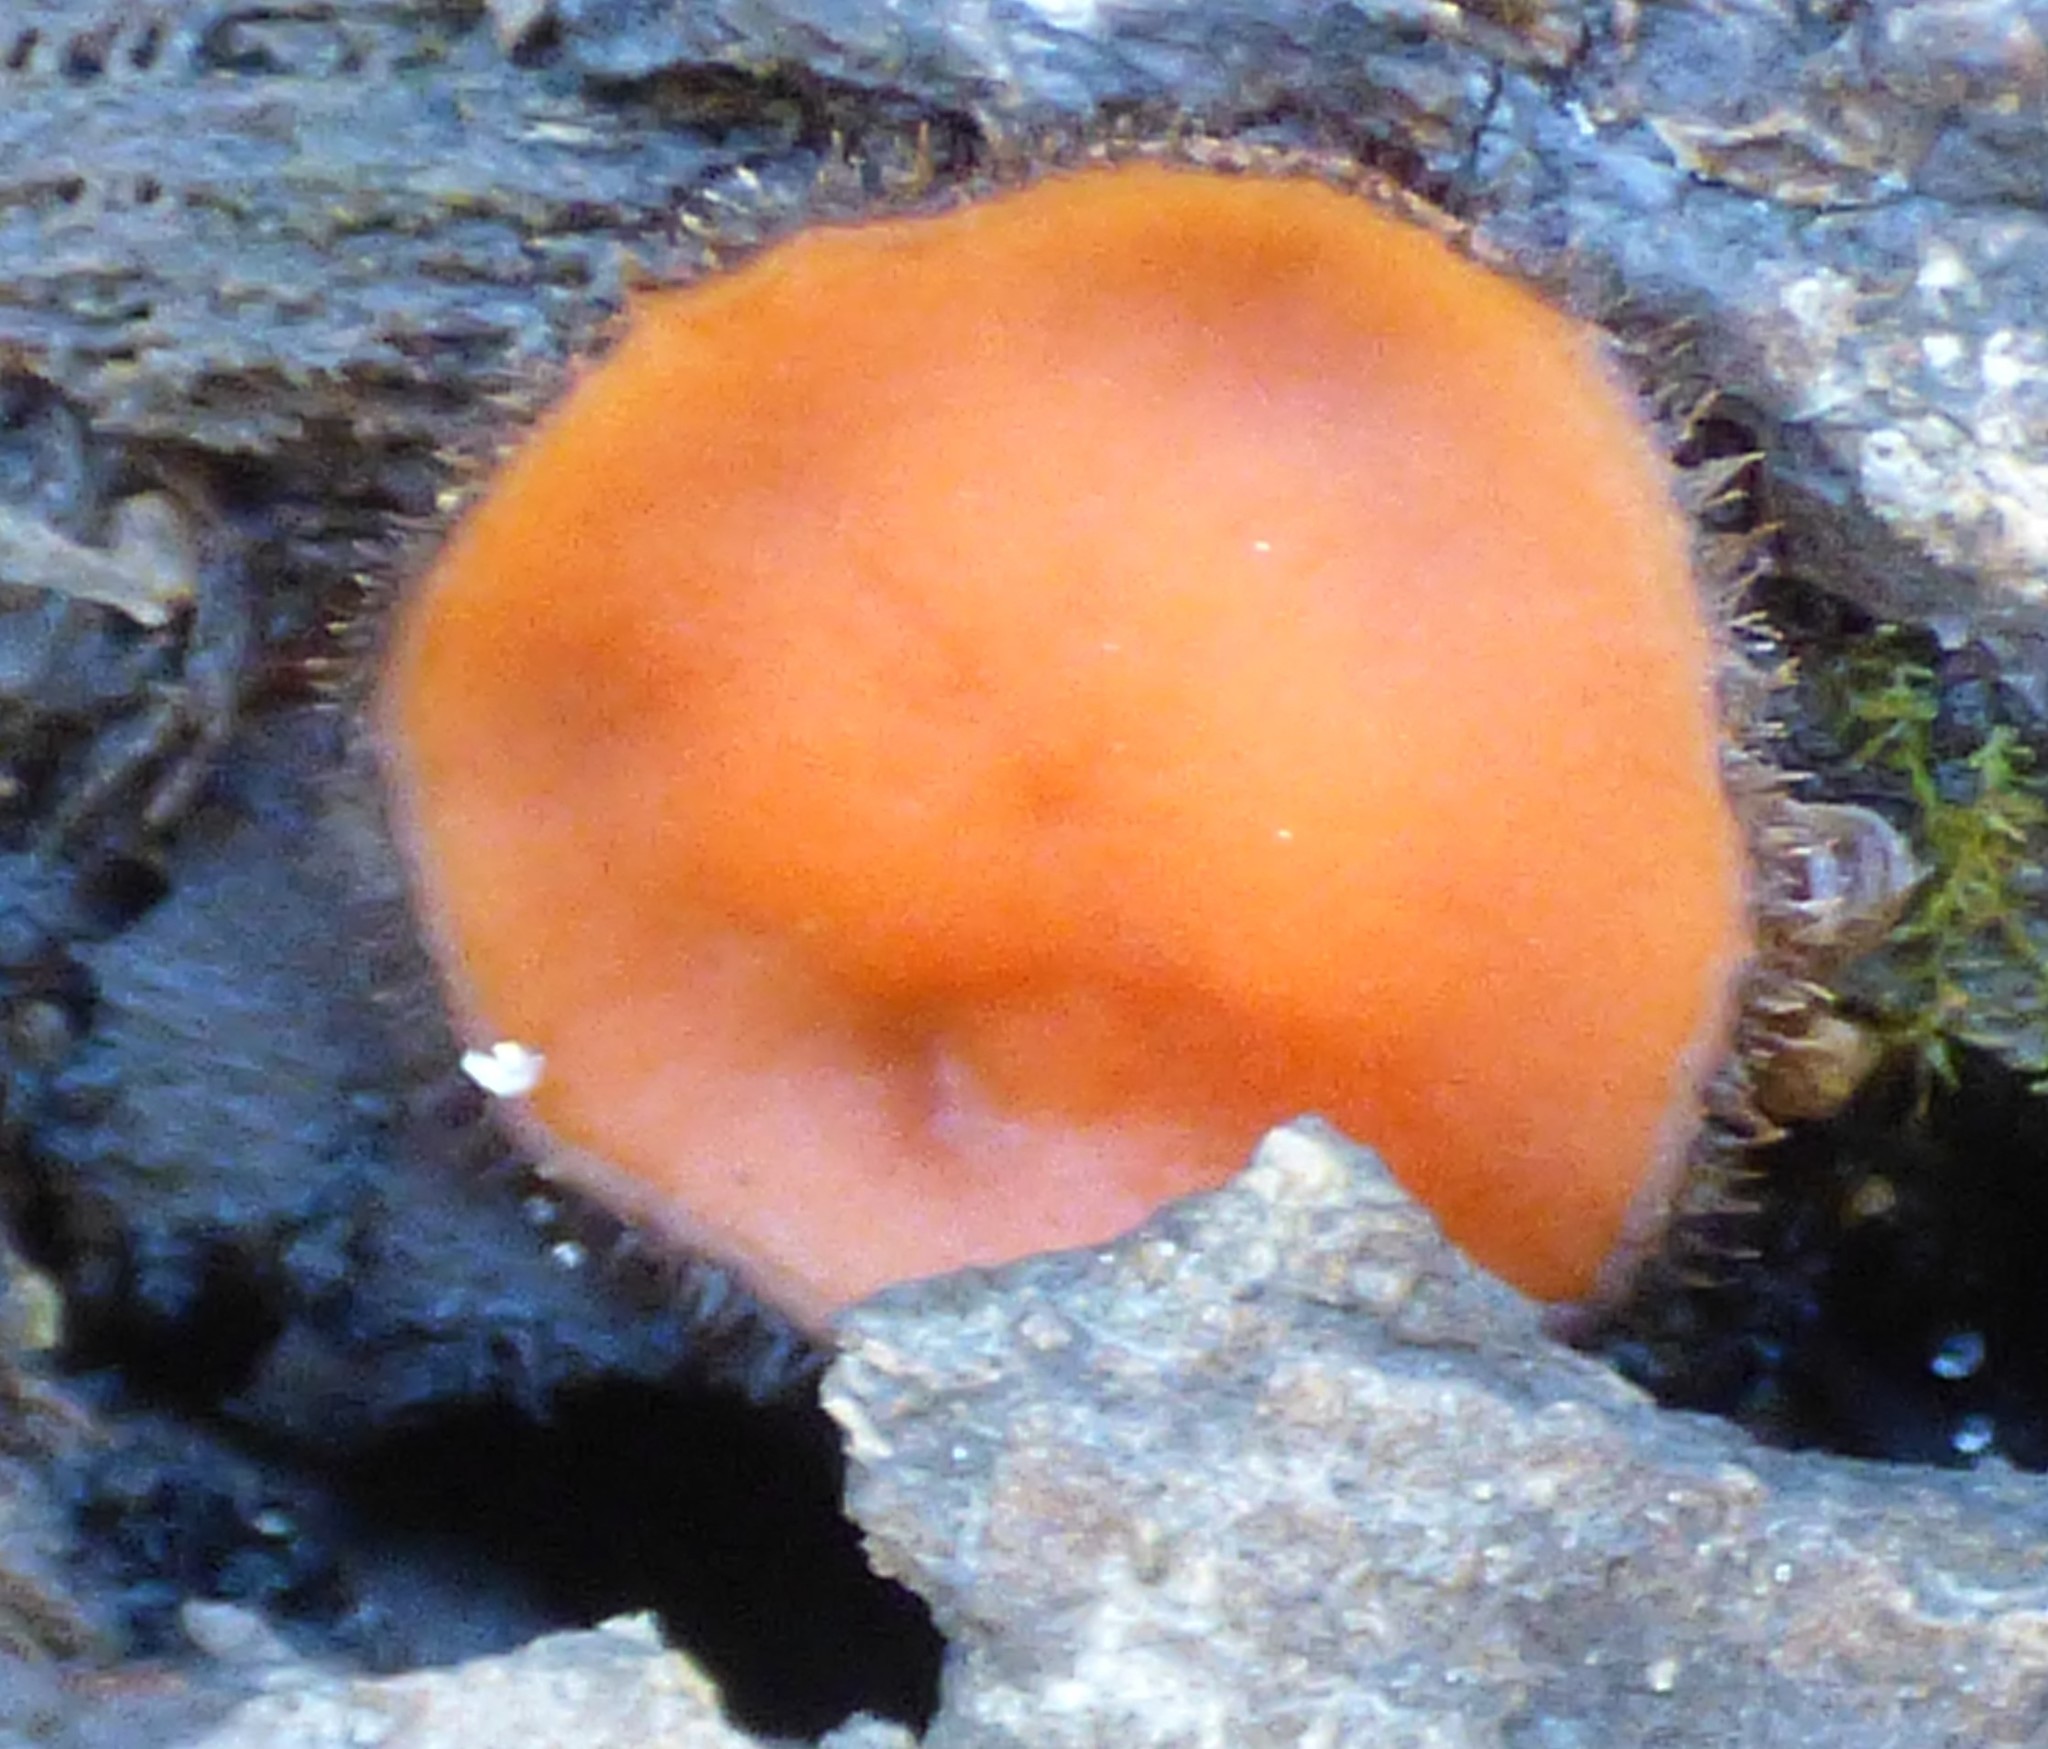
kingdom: Fungi
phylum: Ascomycota
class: Pezizomycetes
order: Pezizales
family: Pyronemataceae
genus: Scutellinia
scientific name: Scutellinia
